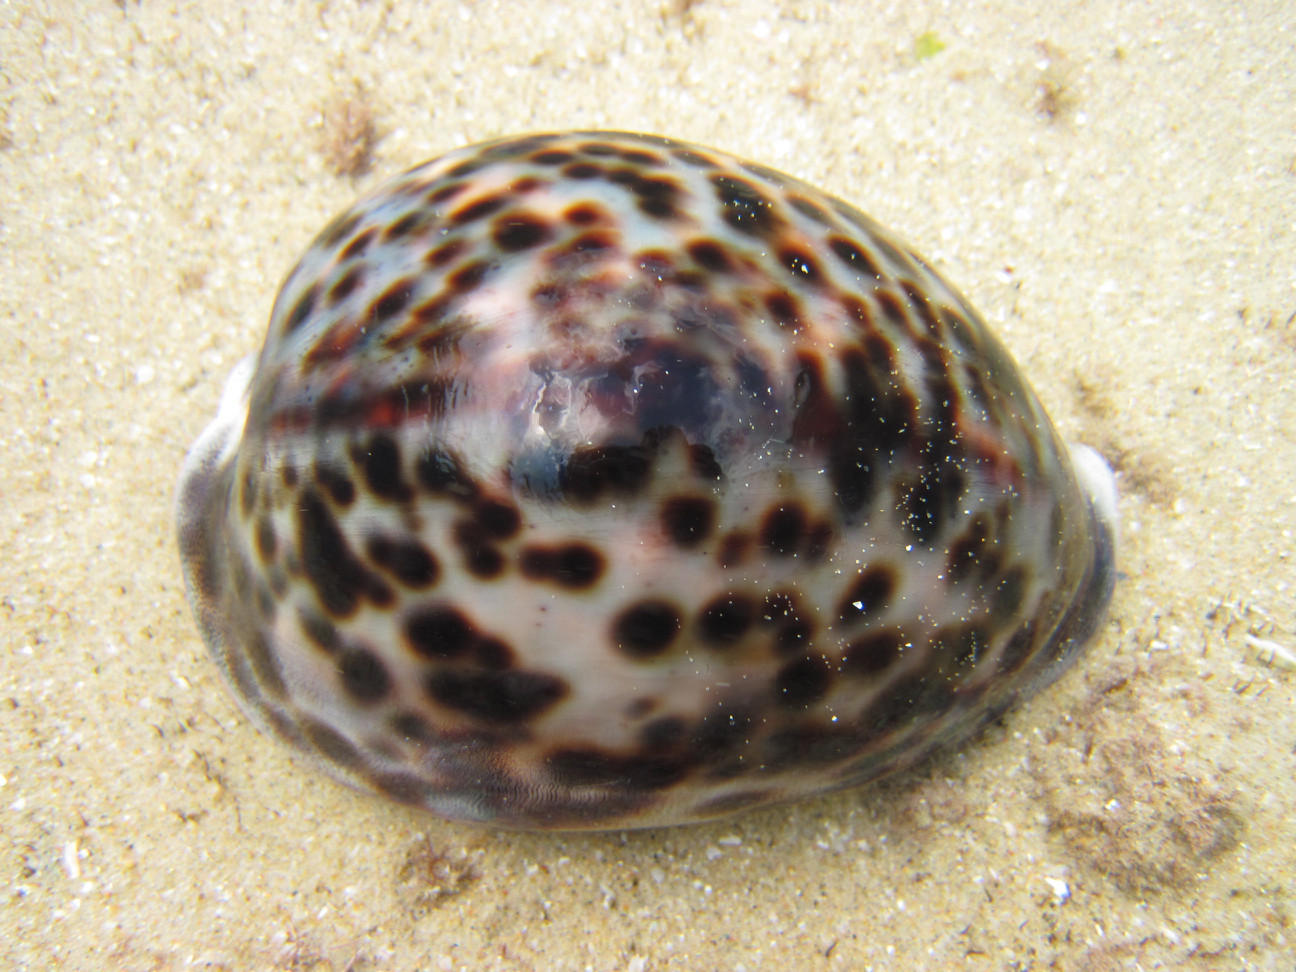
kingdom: Animalia
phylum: Mollusca
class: Gastropoda
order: Littorinimorpha
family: Cypraeidae
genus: Cypraea
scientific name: Cypraea tigris
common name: Tiger cowrie
